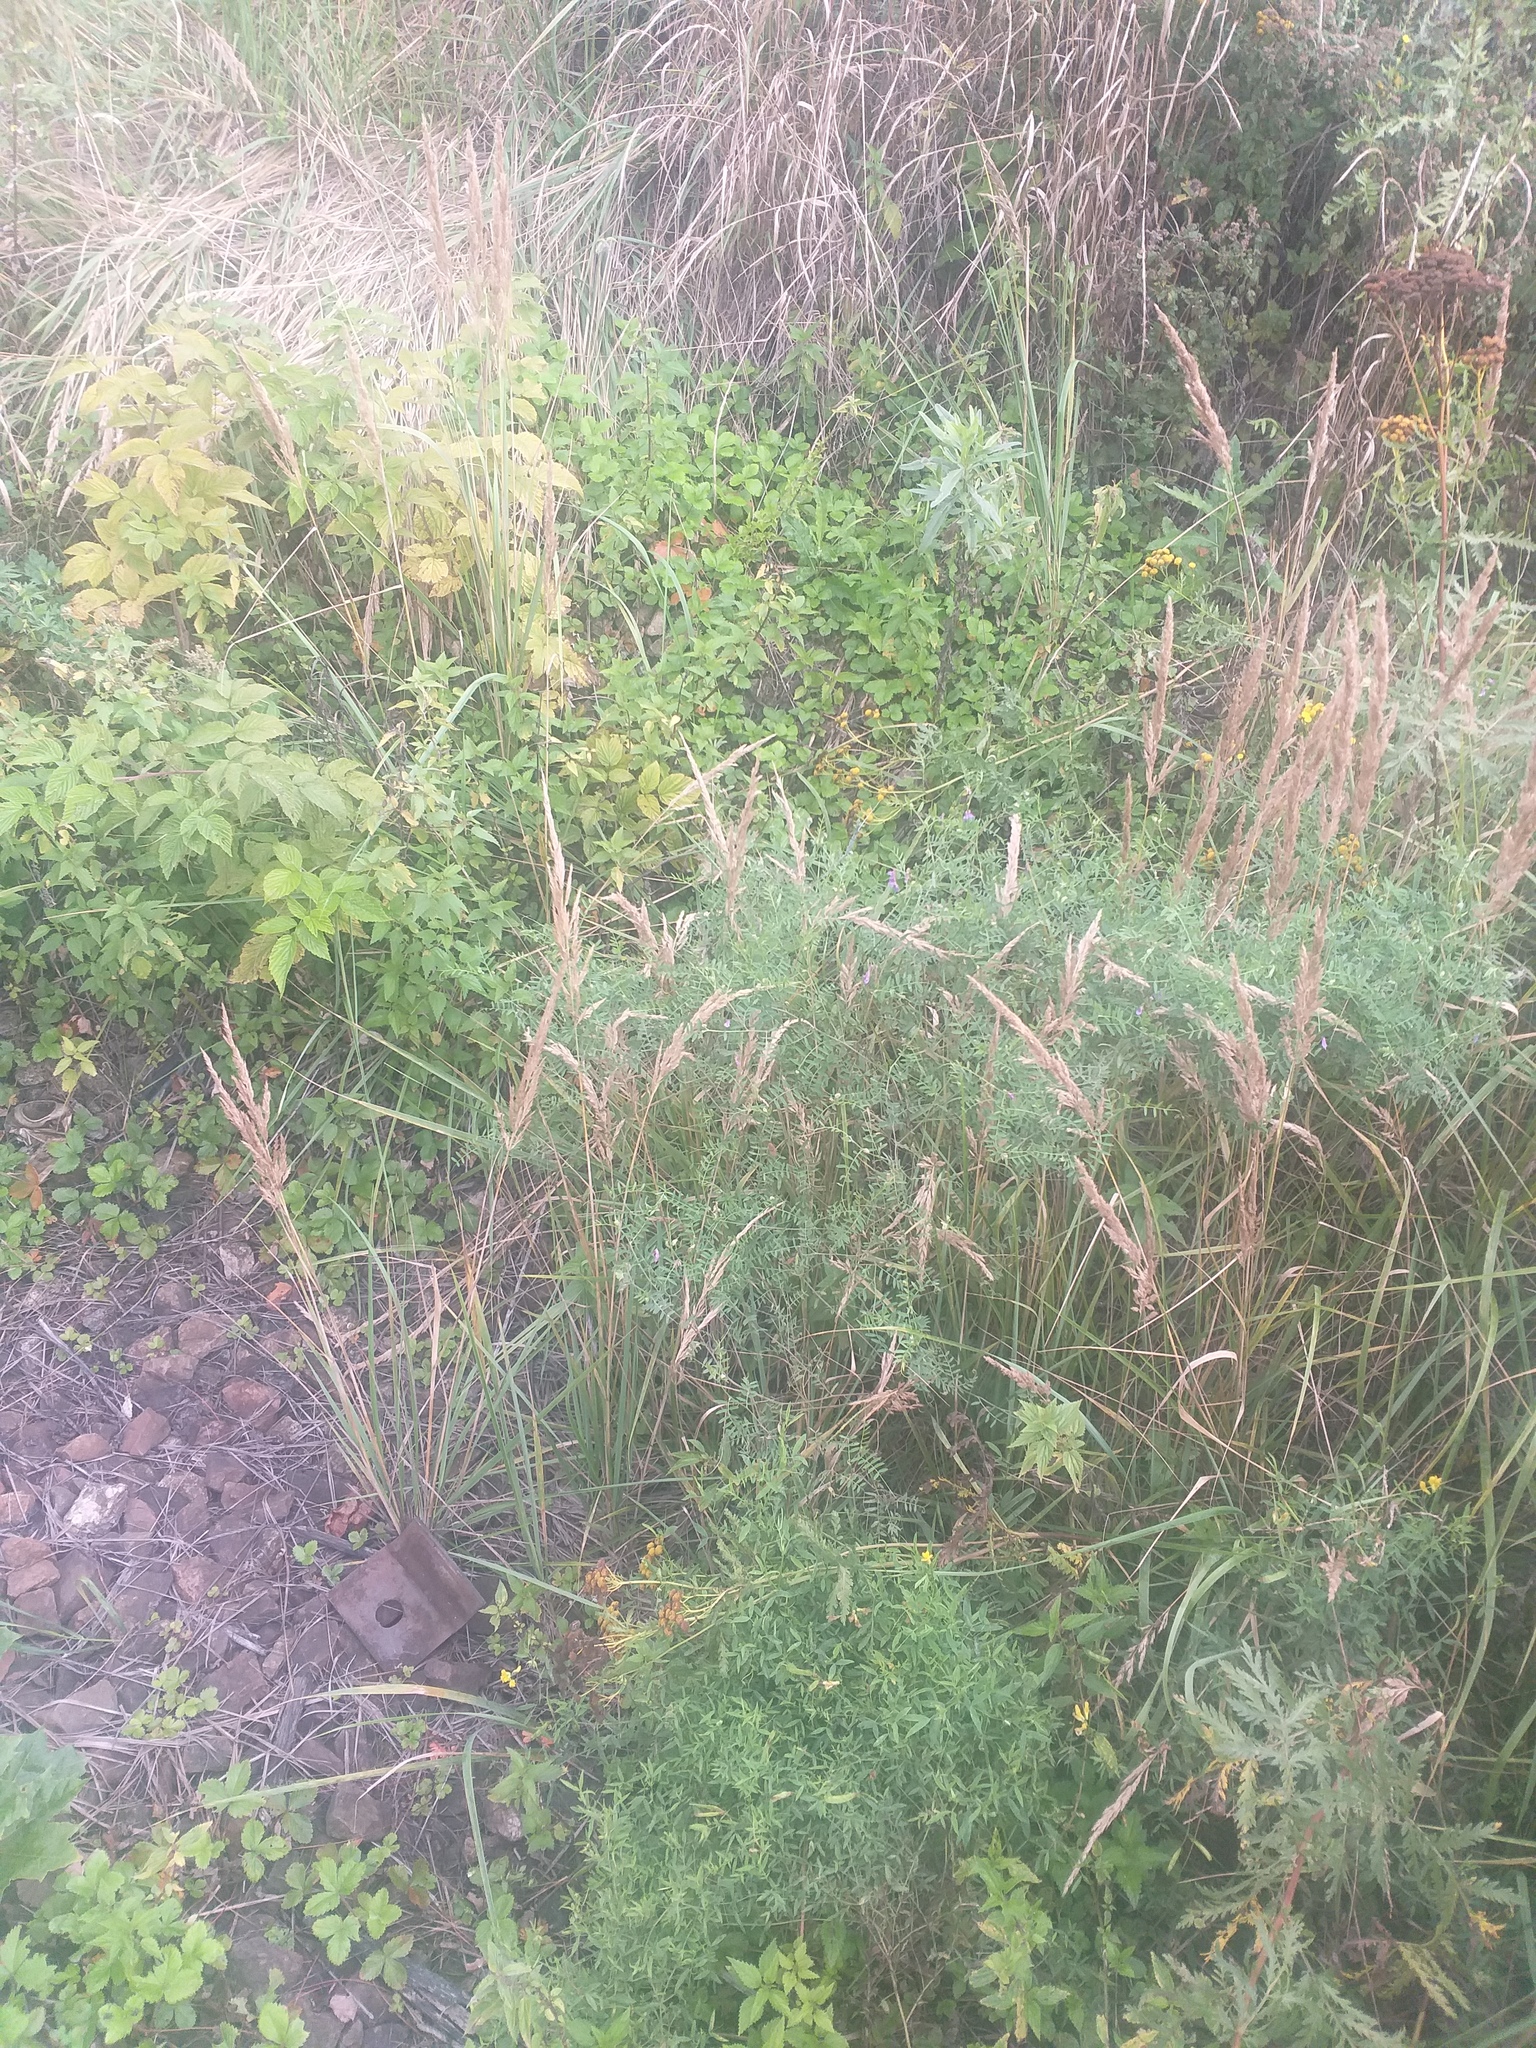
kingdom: Plantae
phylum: Tracheophyta
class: Magnoliopsida
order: Fabales
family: Fabaceae
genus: Vicia
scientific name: Vicia cracca
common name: Bird vetch
